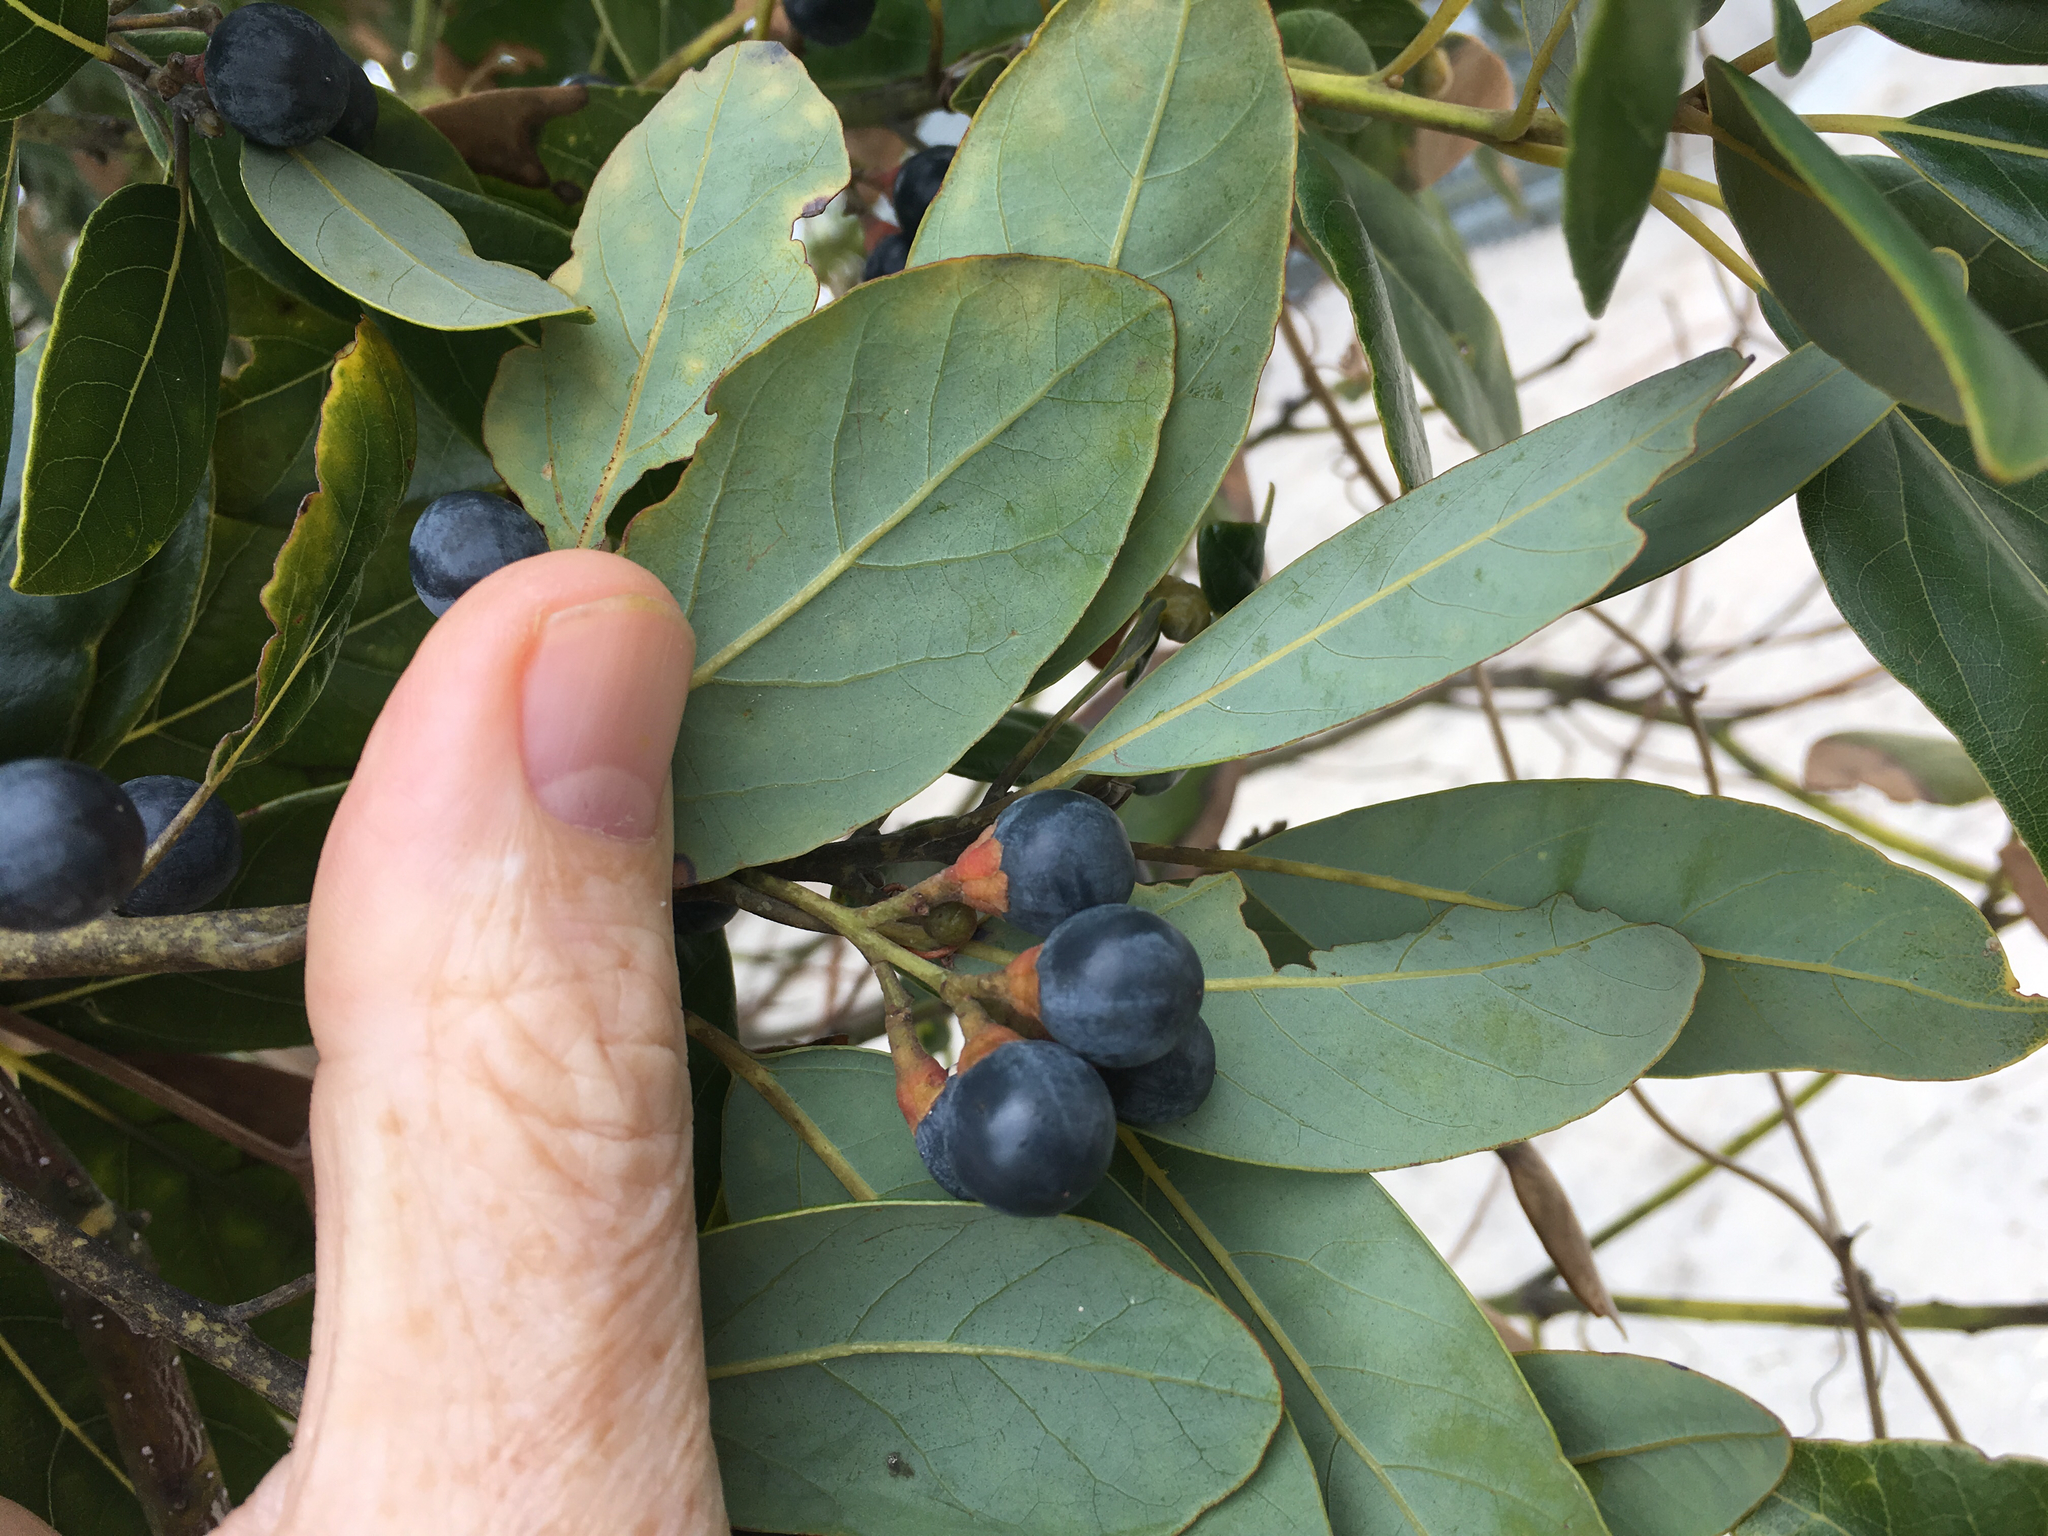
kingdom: Plantae
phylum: Tracheophyta
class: Magnoliopsida
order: Laurales
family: Lauraceae
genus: Persea
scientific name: Persea borbonia
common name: Redbay
